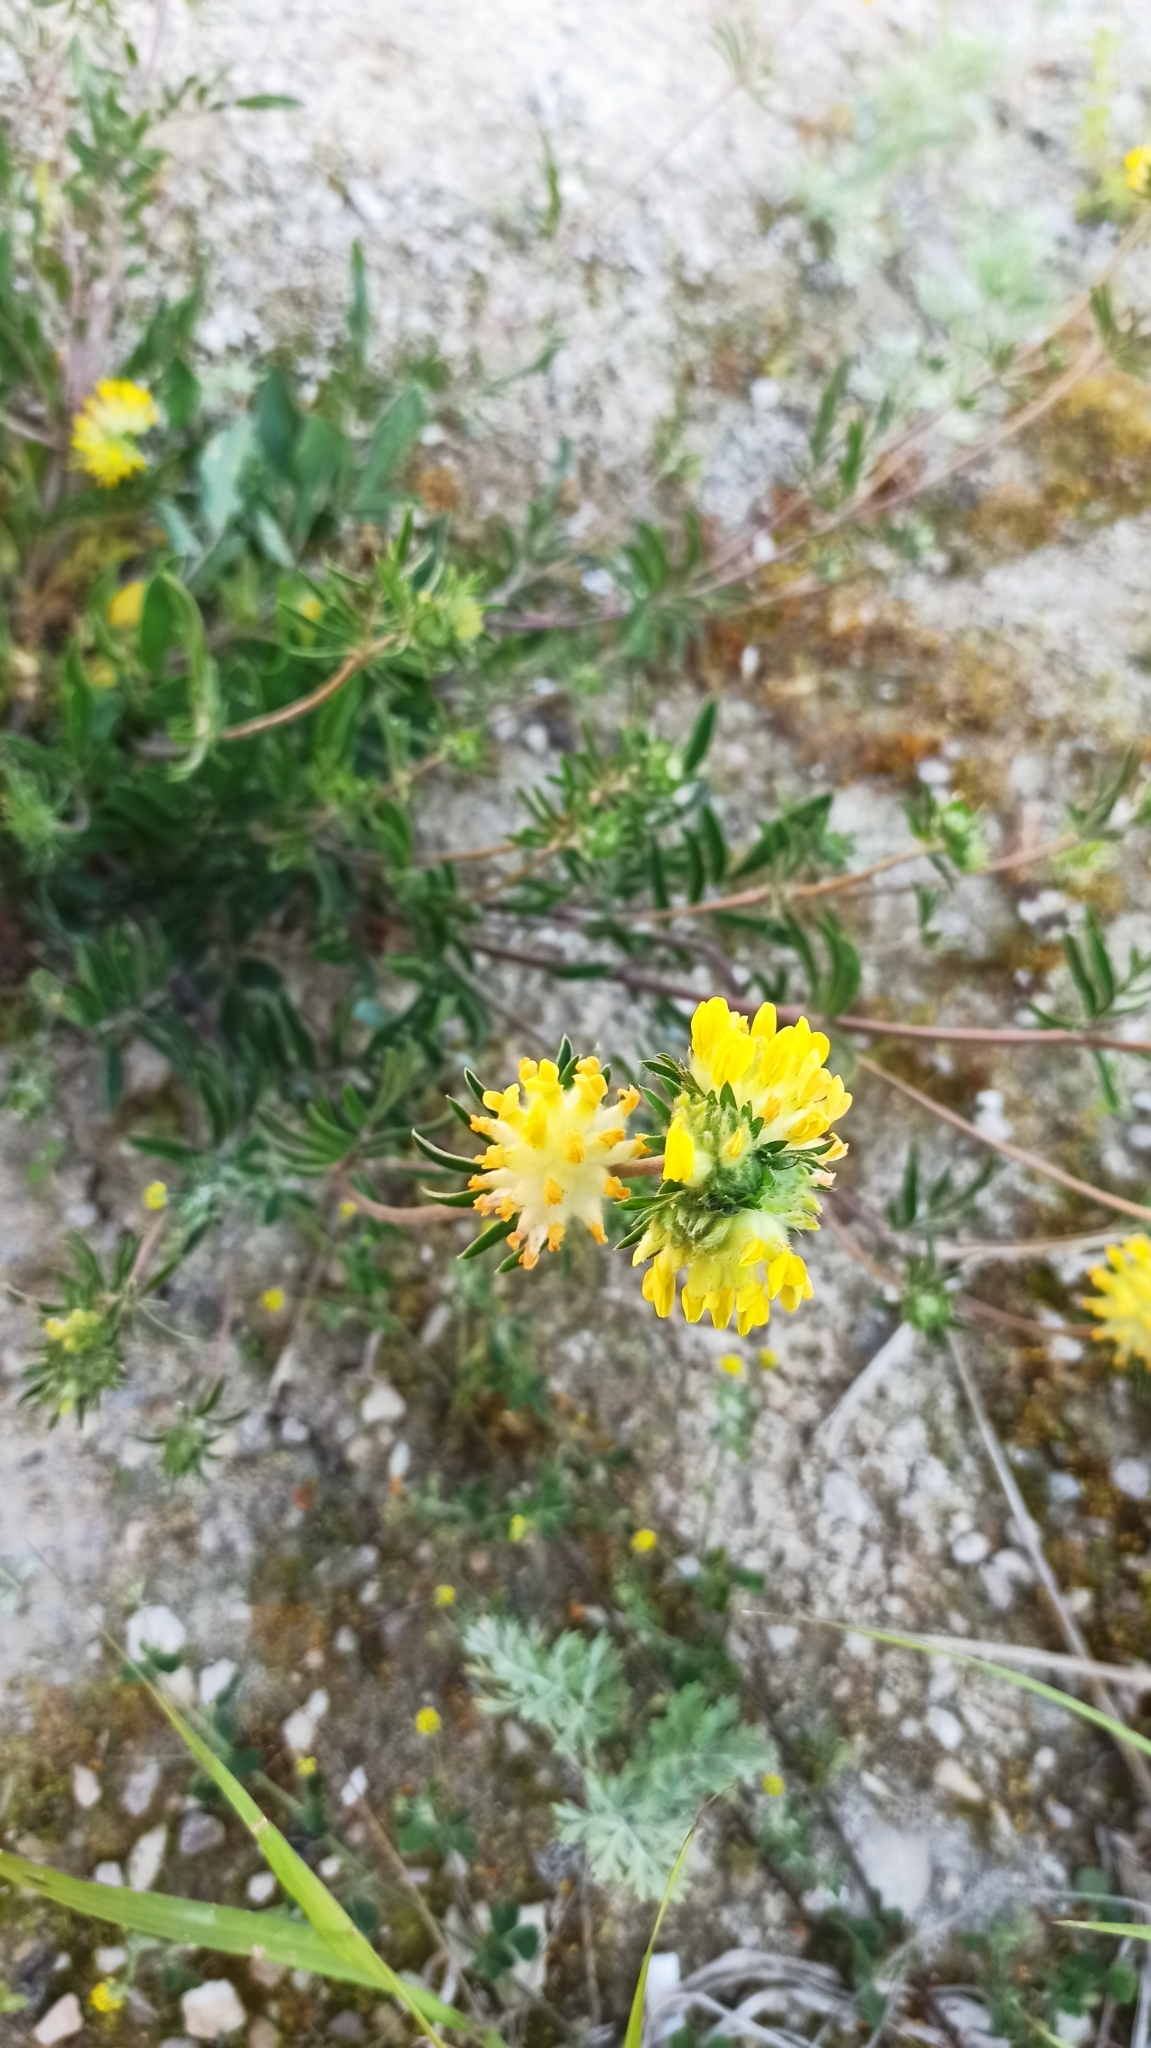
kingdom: Plantae
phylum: Tracheophyta
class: Magnoliopsida
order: Fabales
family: Fabaceae
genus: Anthyllis
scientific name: Anthyllis vulneraria
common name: Kidney vetch
